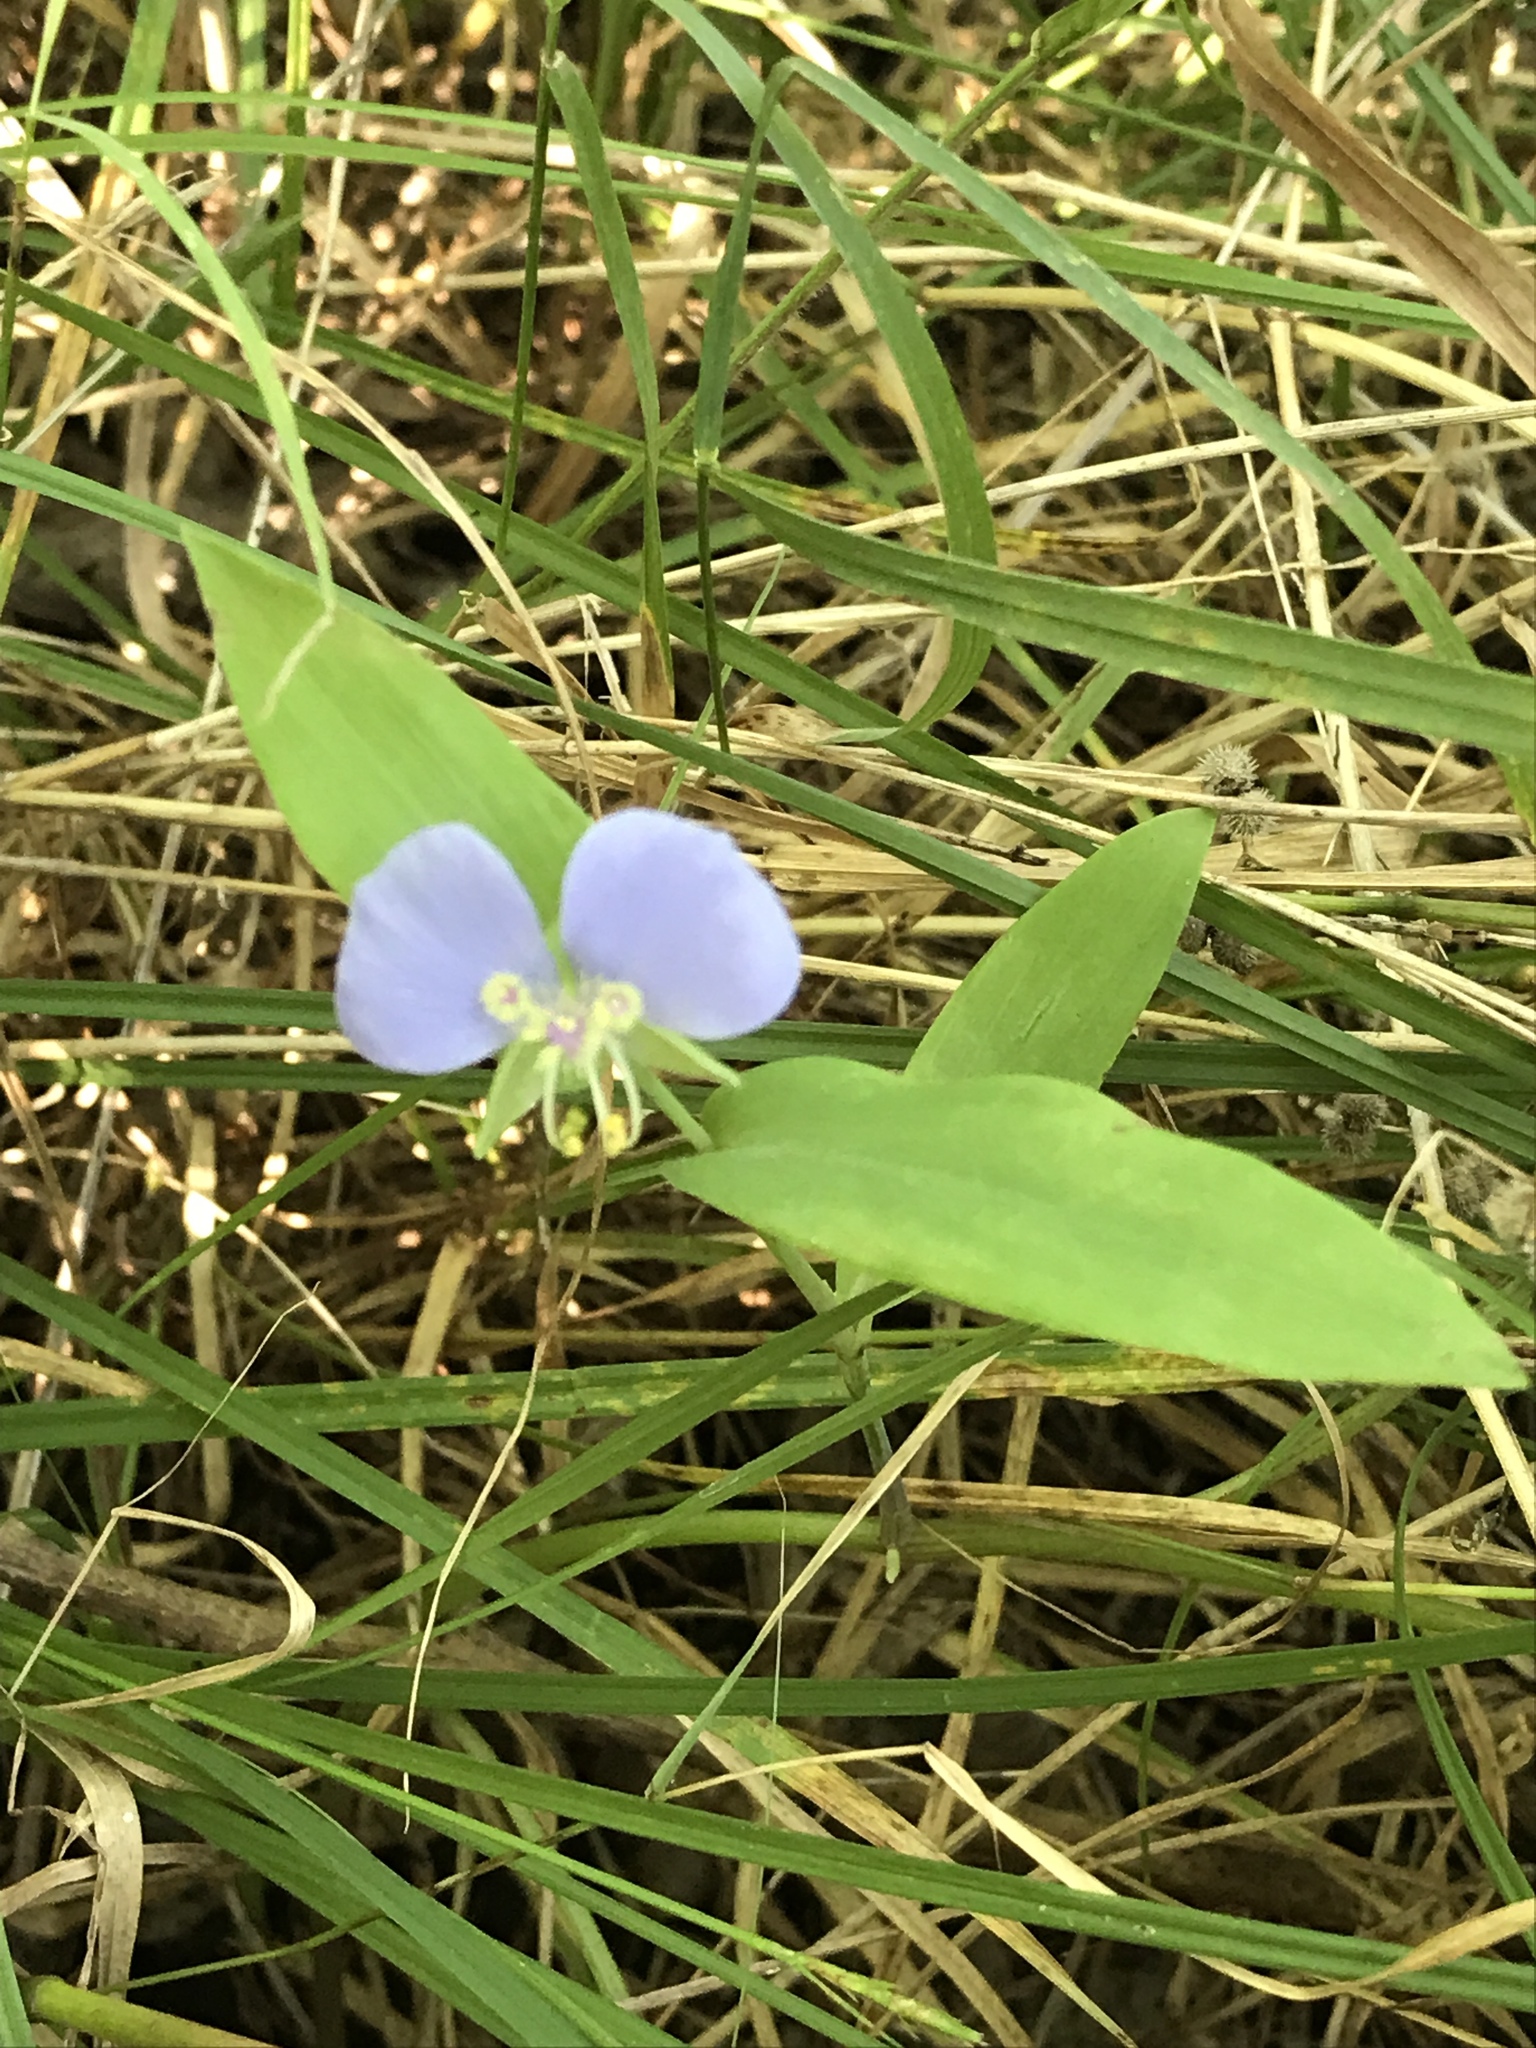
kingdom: Plantae
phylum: Tracheophyta
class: Liliopsida
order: Commelinales
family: Commelinaceae
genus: Tinantia
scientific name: Tinantia anomala
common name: False dayflower
